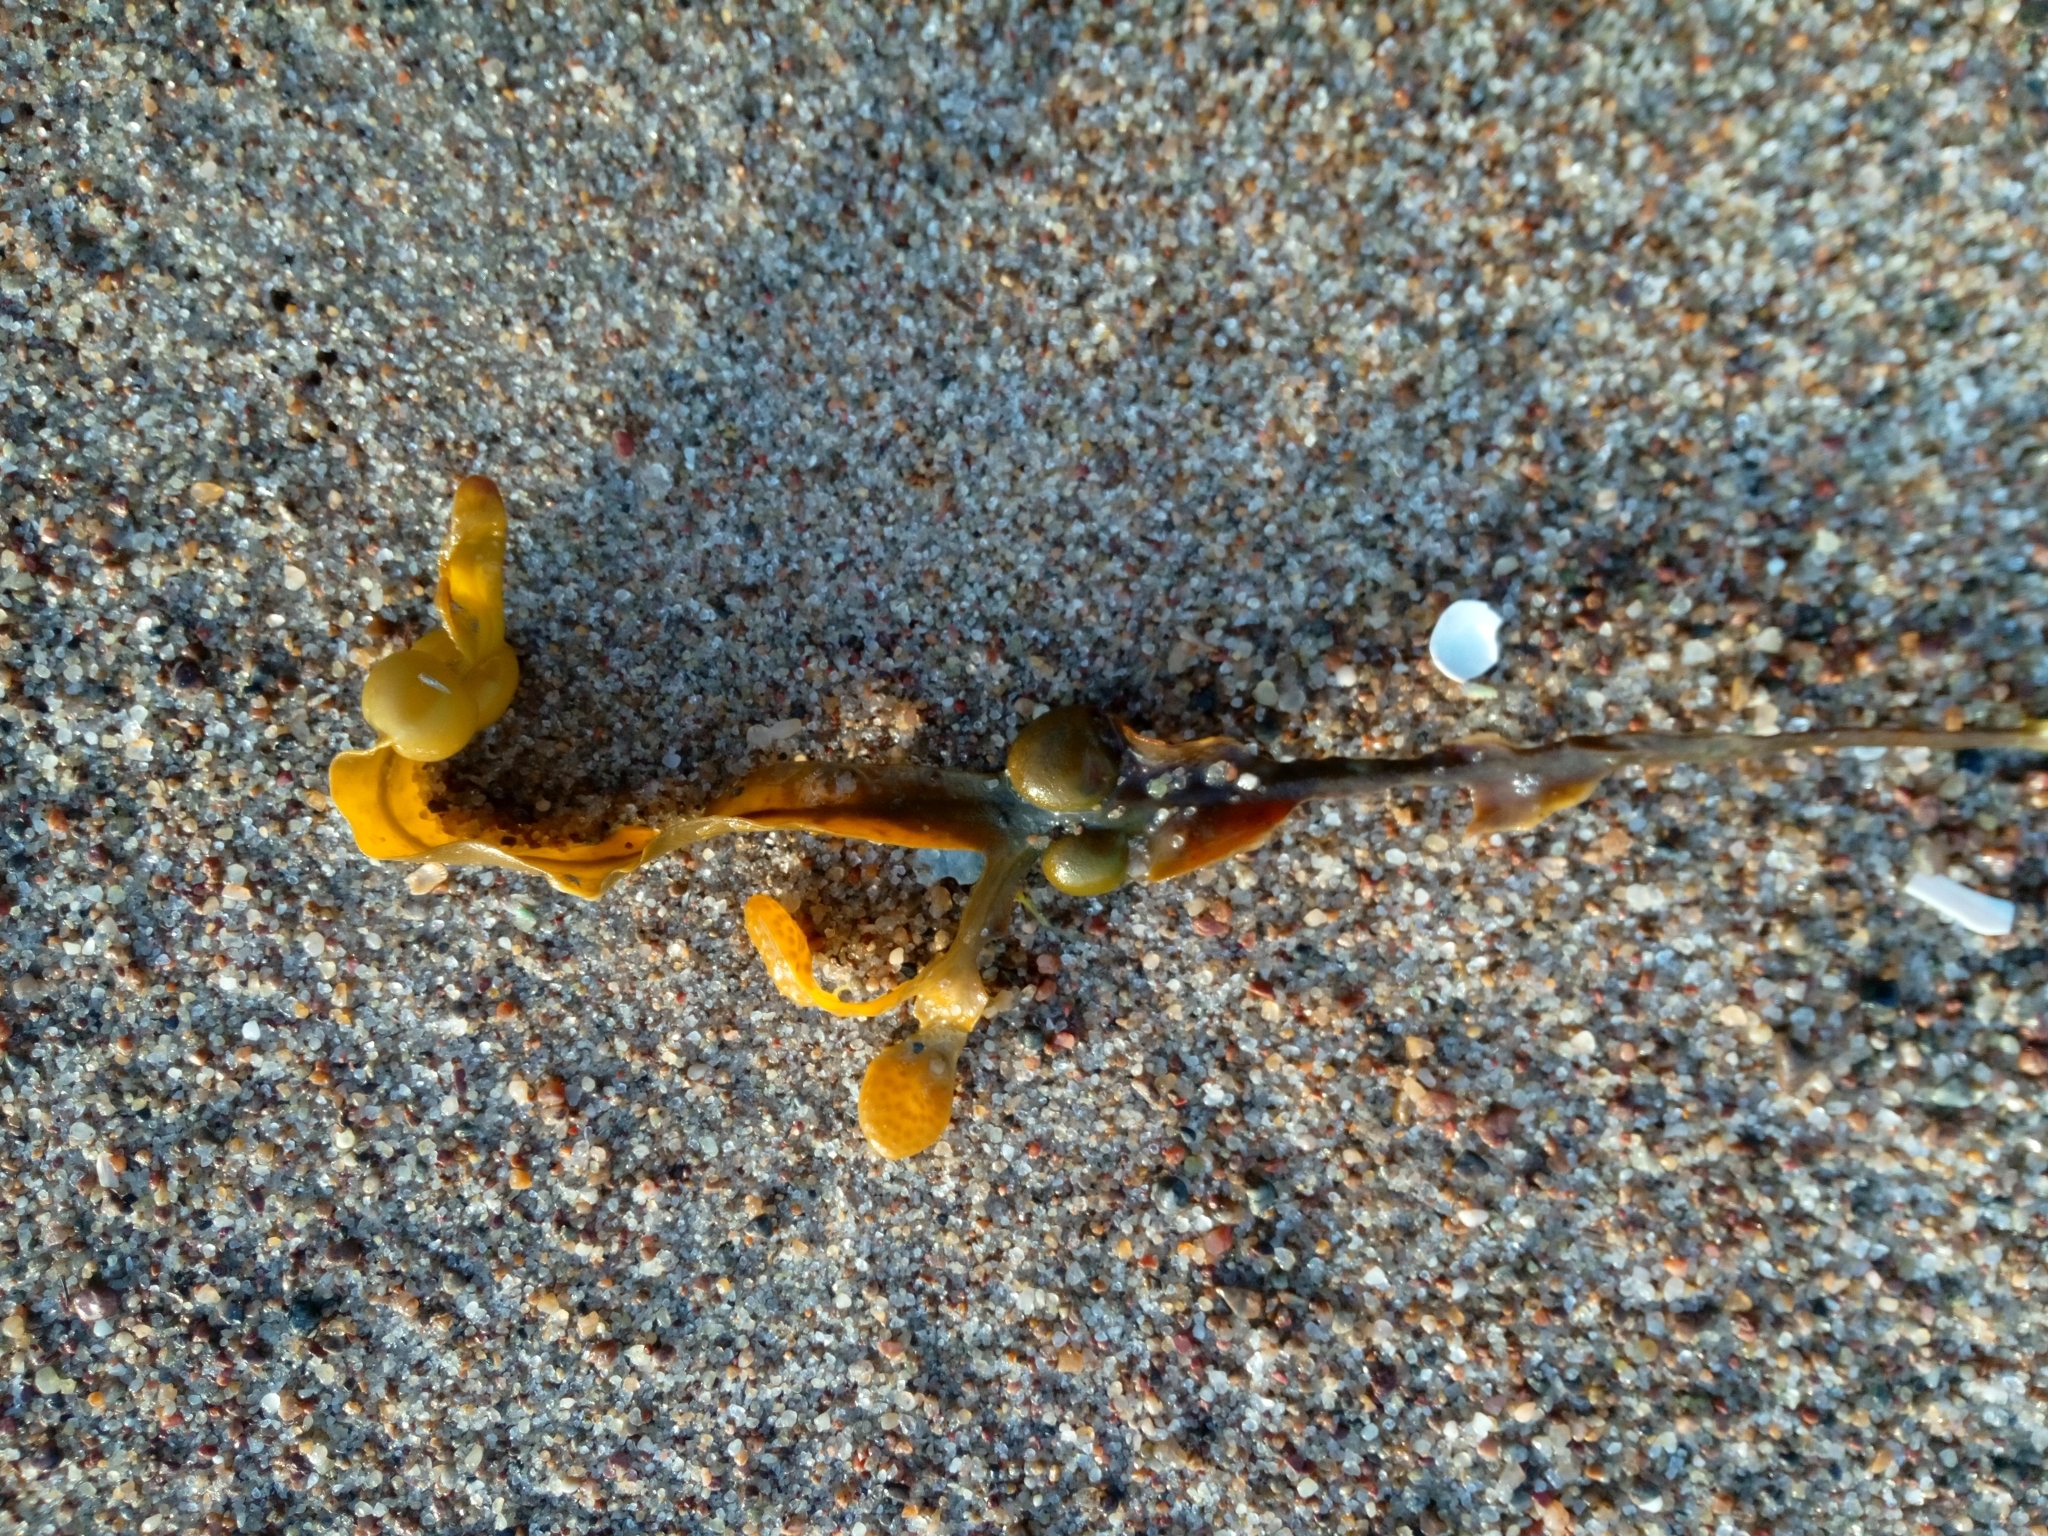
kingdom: Chromista
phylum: Ochrophyta
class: Phaeophyceae
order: Fucales
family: Fucaceae
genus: Fucus
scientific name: Fucus vesiculosus
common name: Bladder wrack
